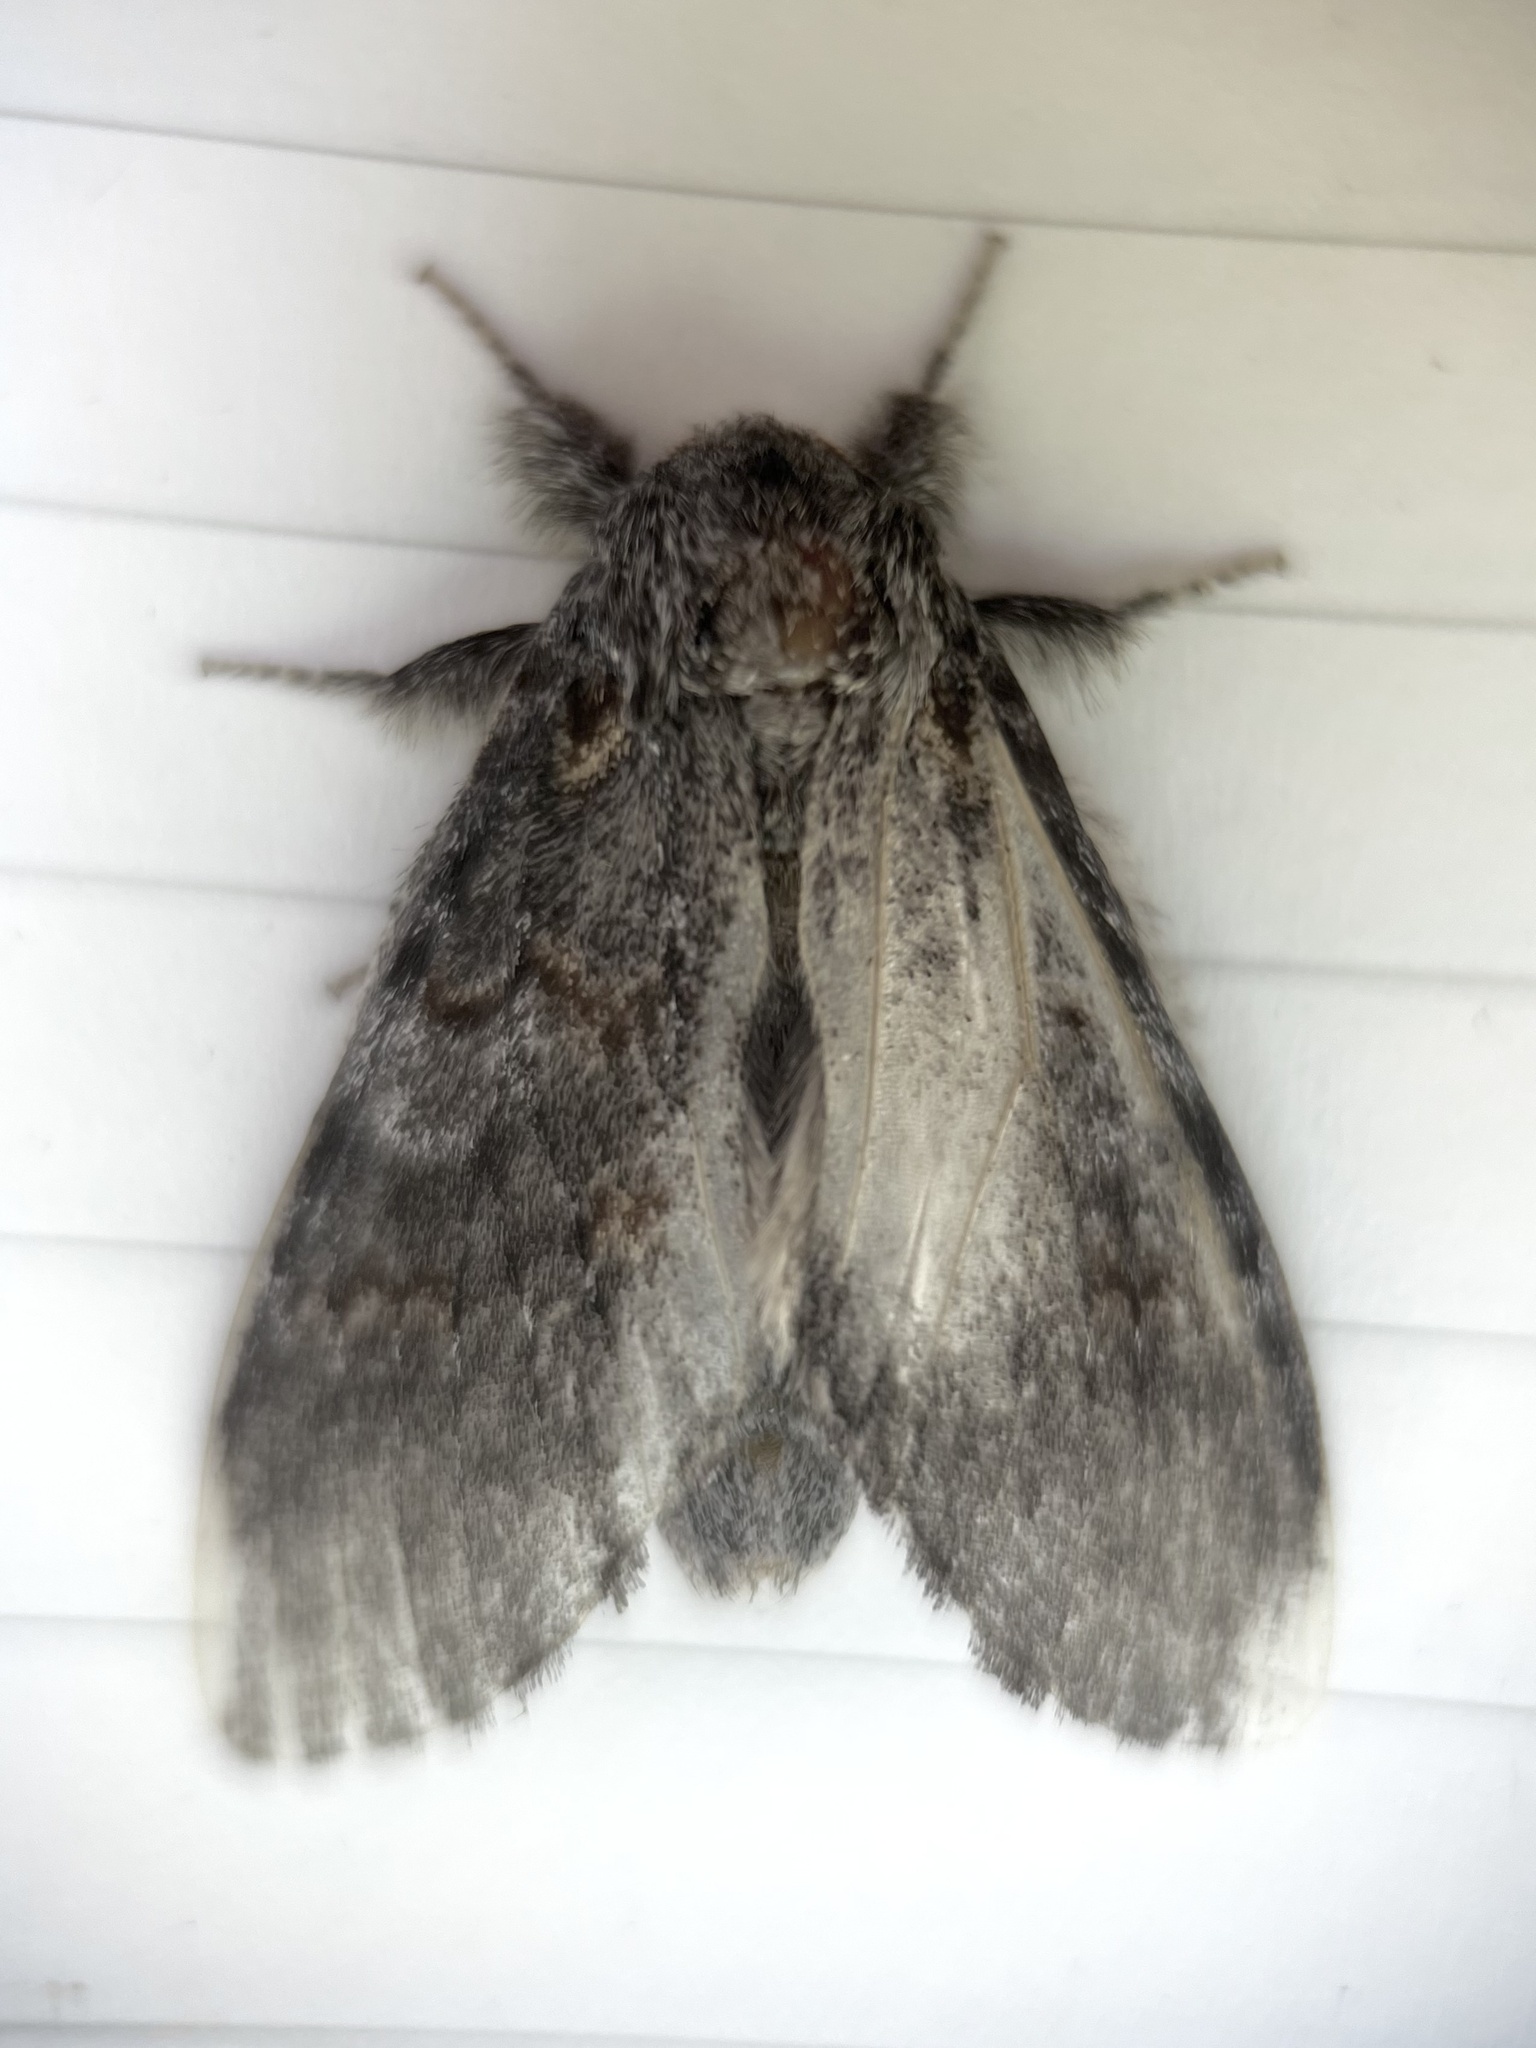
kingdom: Animalia
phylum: Arthropoda
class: Insecta
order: Lepidoptera
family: Notodontidae
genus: Peridea
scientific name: Peridea angulosa
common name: Angulose prominent
